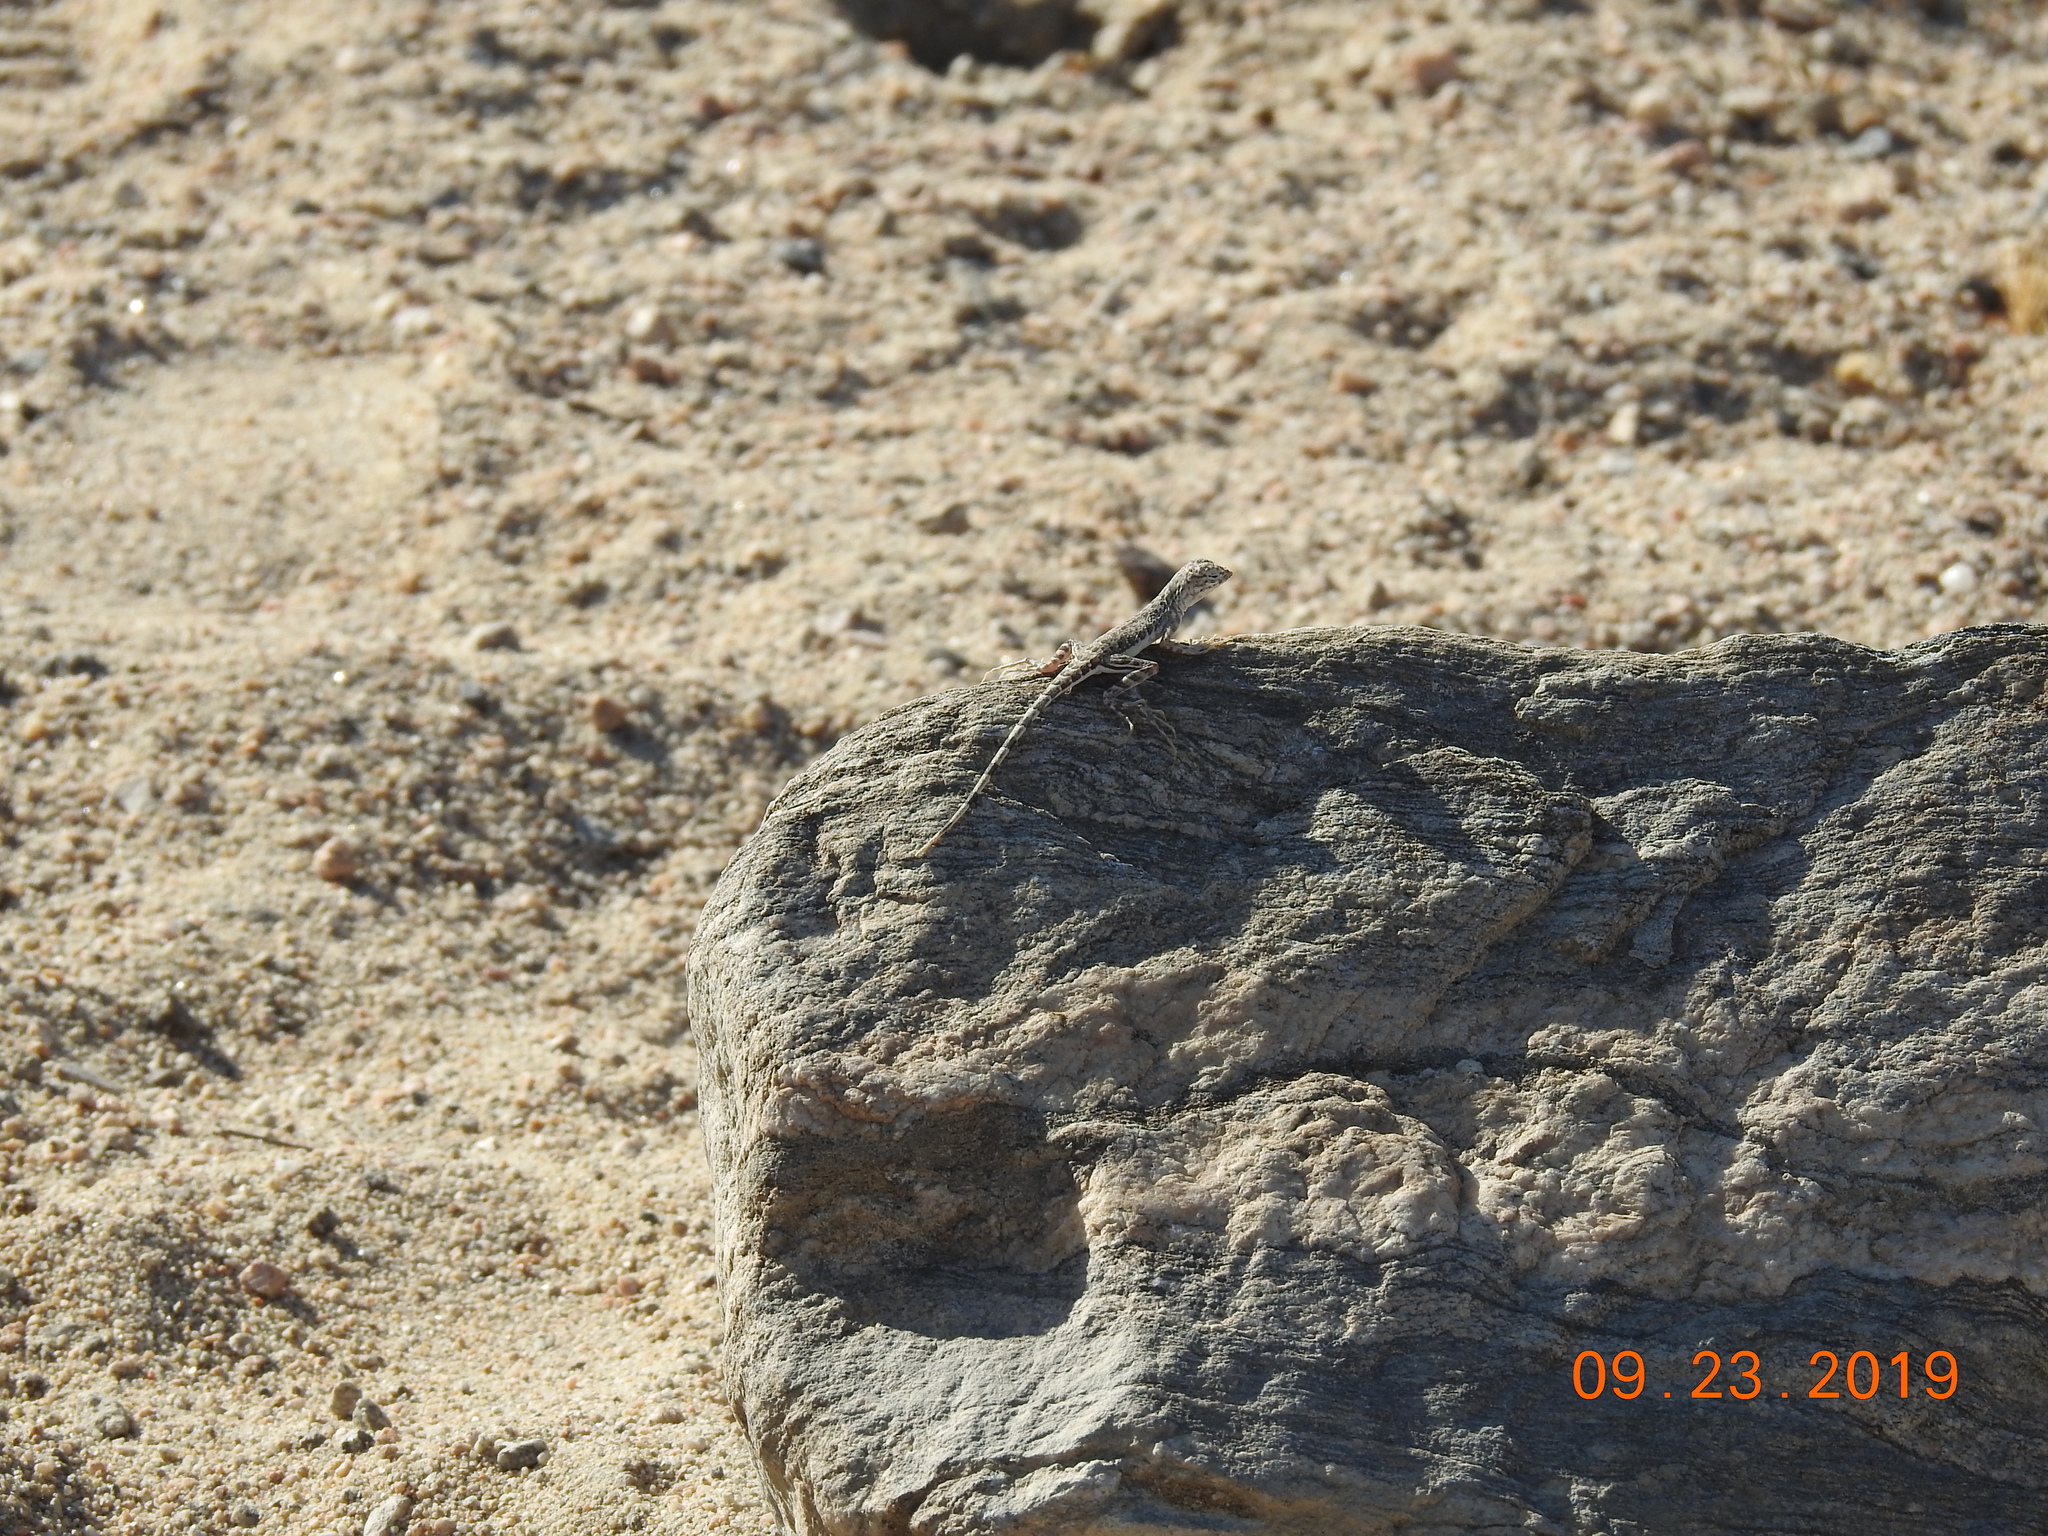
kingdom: Animalia
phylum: Chordata
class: Squamata
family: Phrynosomatidae
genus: Callisaurus
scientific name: Callisaurus draconoides
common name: Zebra-tailed lizard
